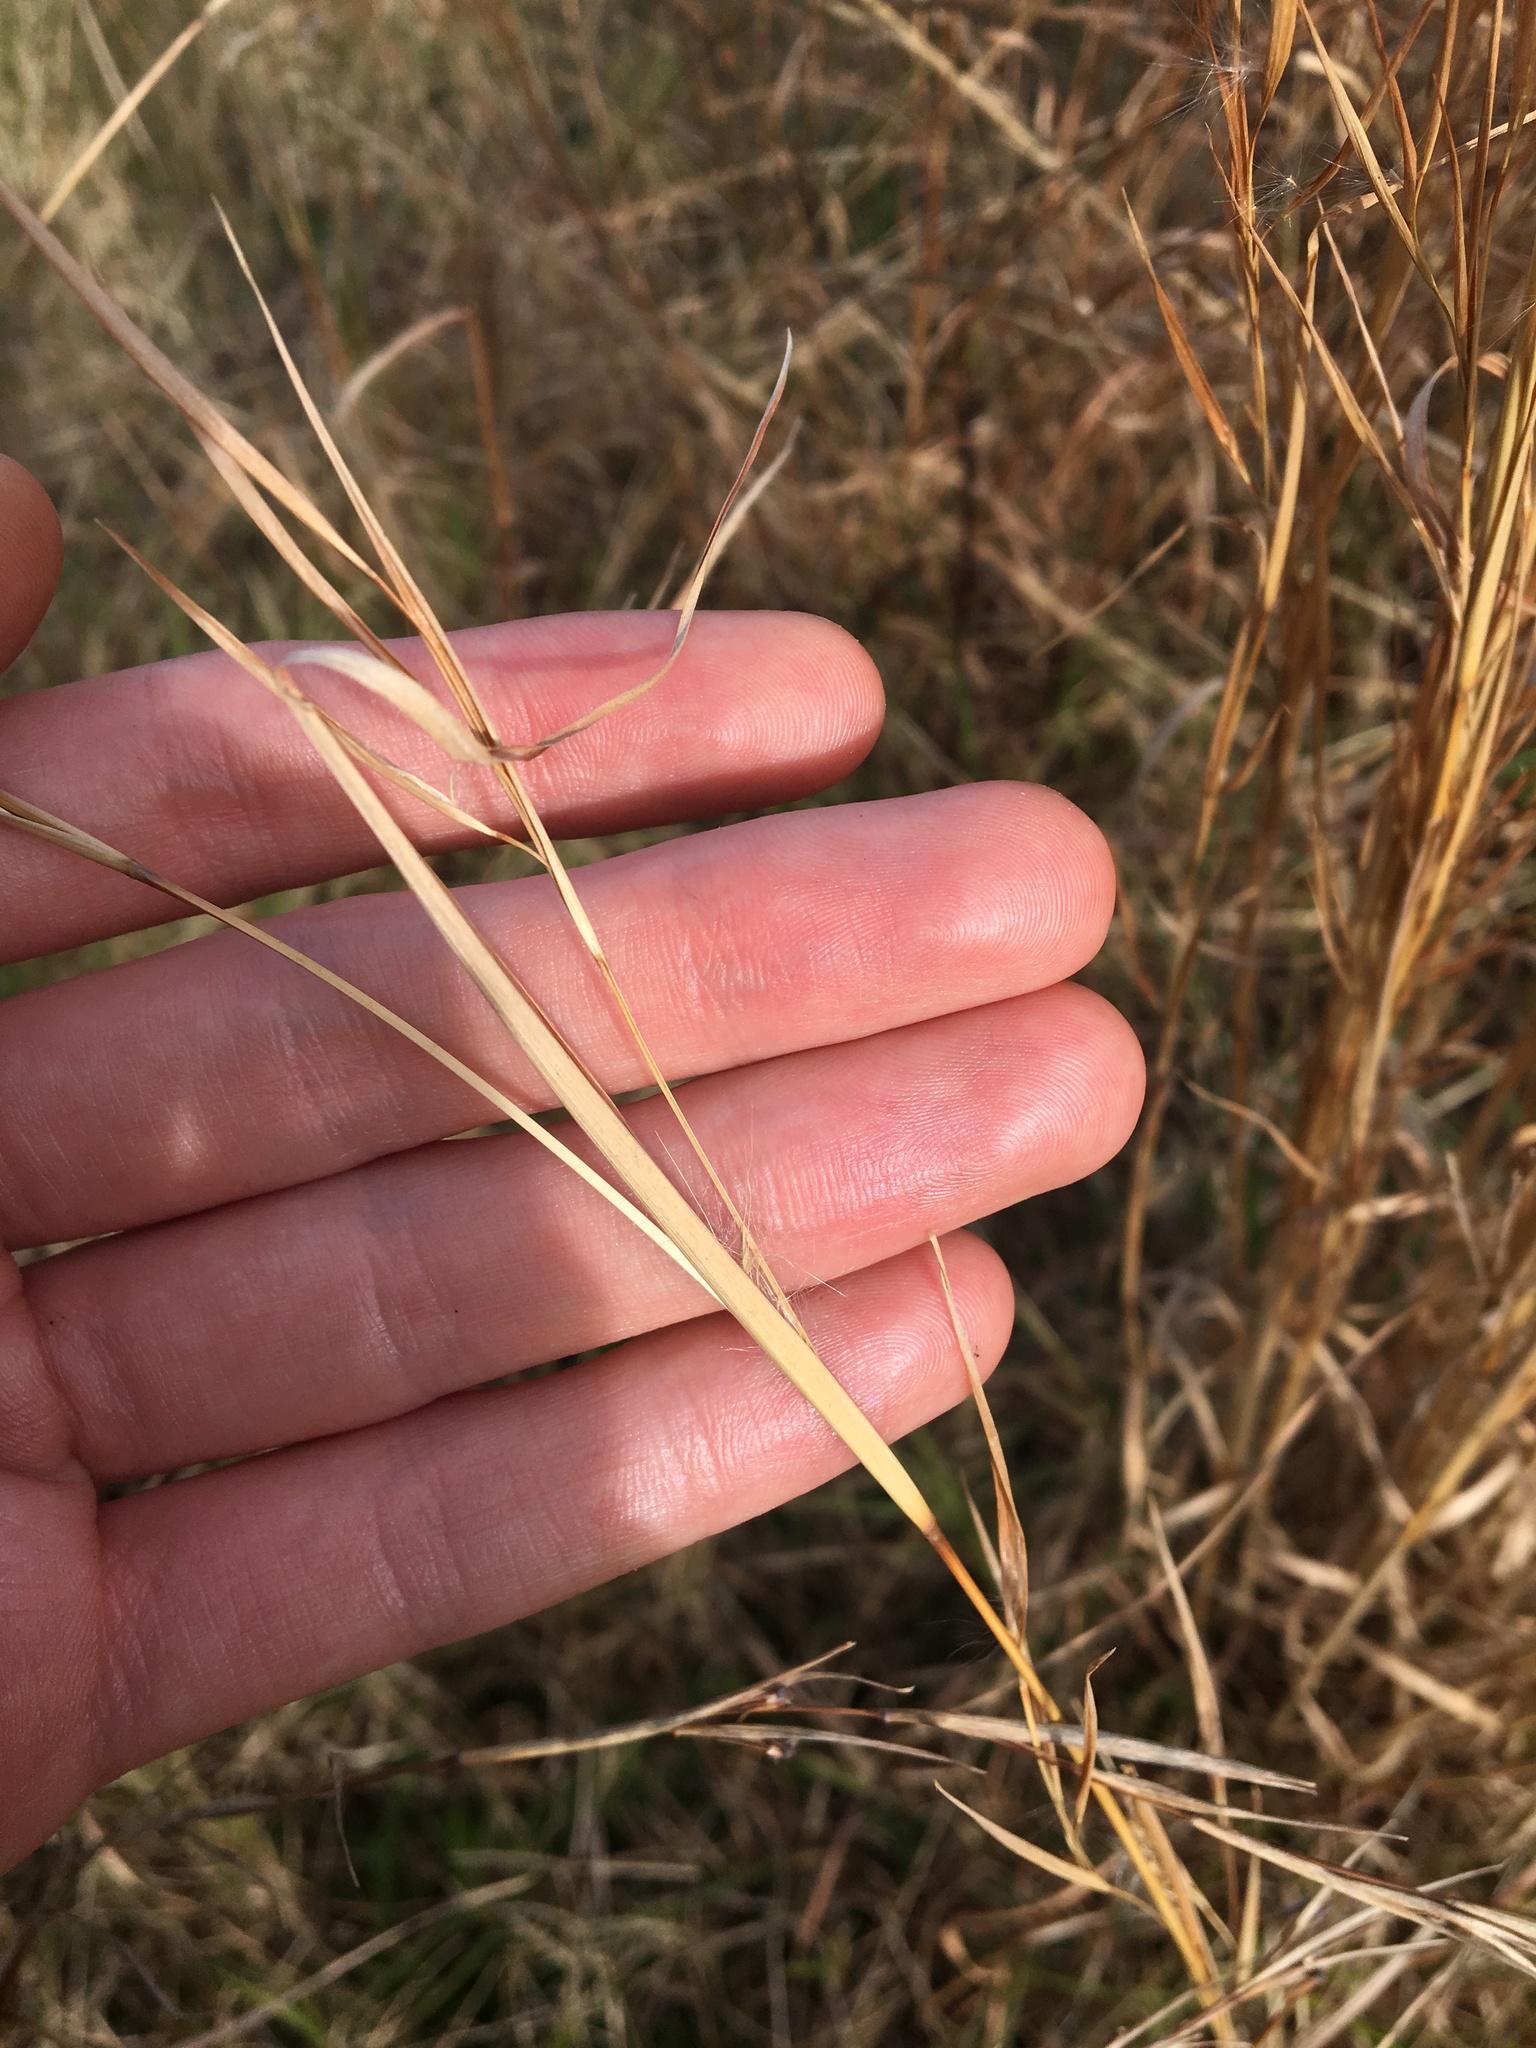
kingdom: Plantae
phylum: Tracheophyta
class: Liliopsida
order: Poales
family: Poaceae
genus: Andropogon
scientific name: Andropogon virginicus
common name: Broomsedge bluestem
